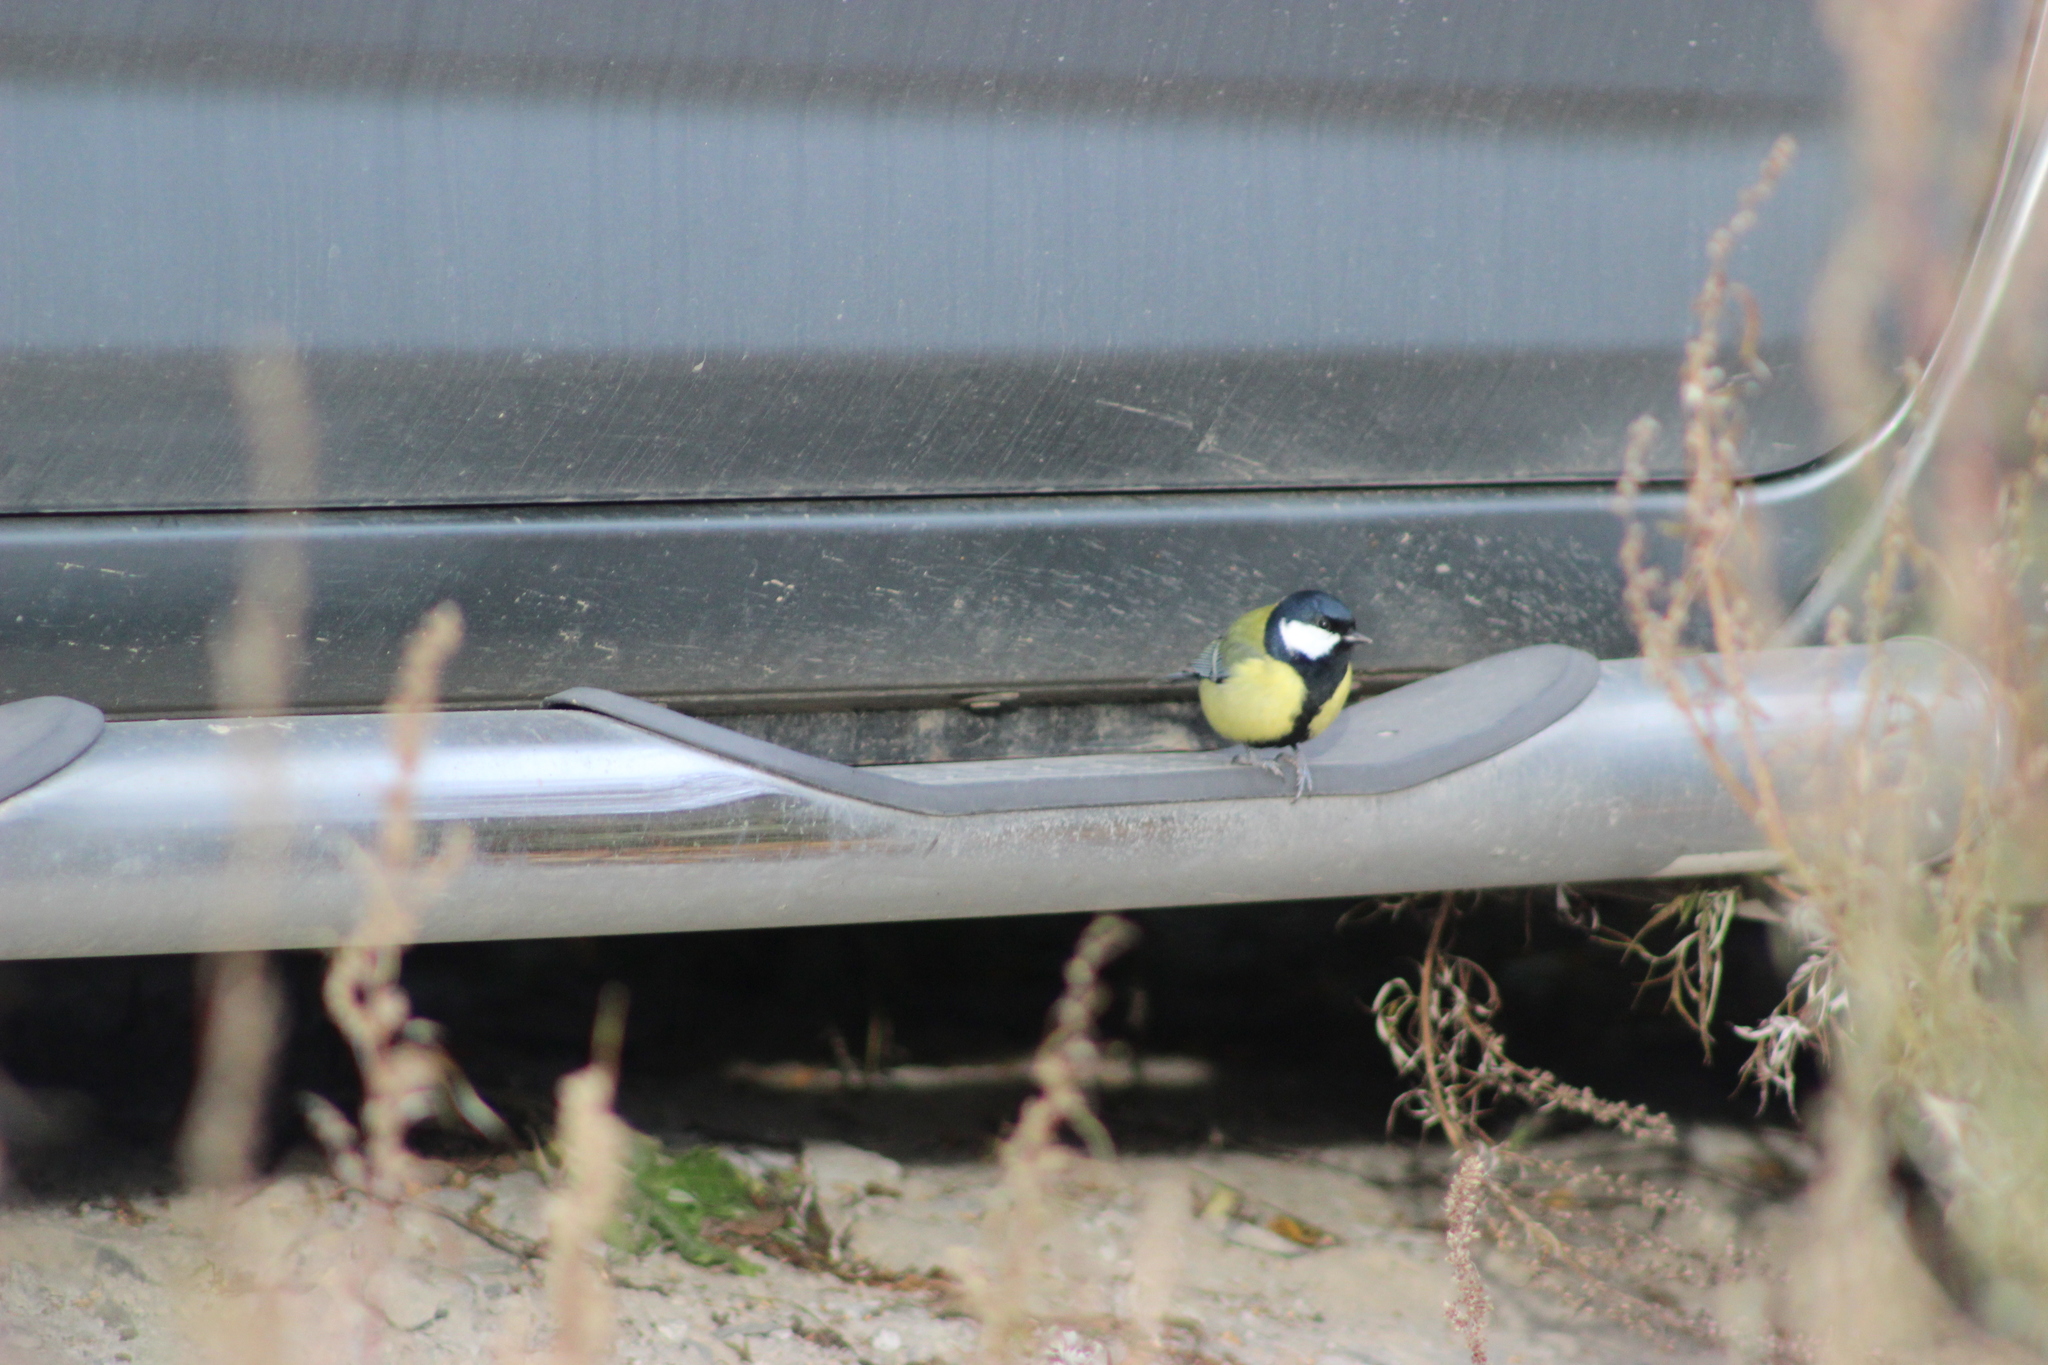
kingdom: Animalia
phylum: Chordata
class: Aves
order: Passeriformes
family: Paridae
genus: Parus
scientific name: Parus major
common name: Great tit
